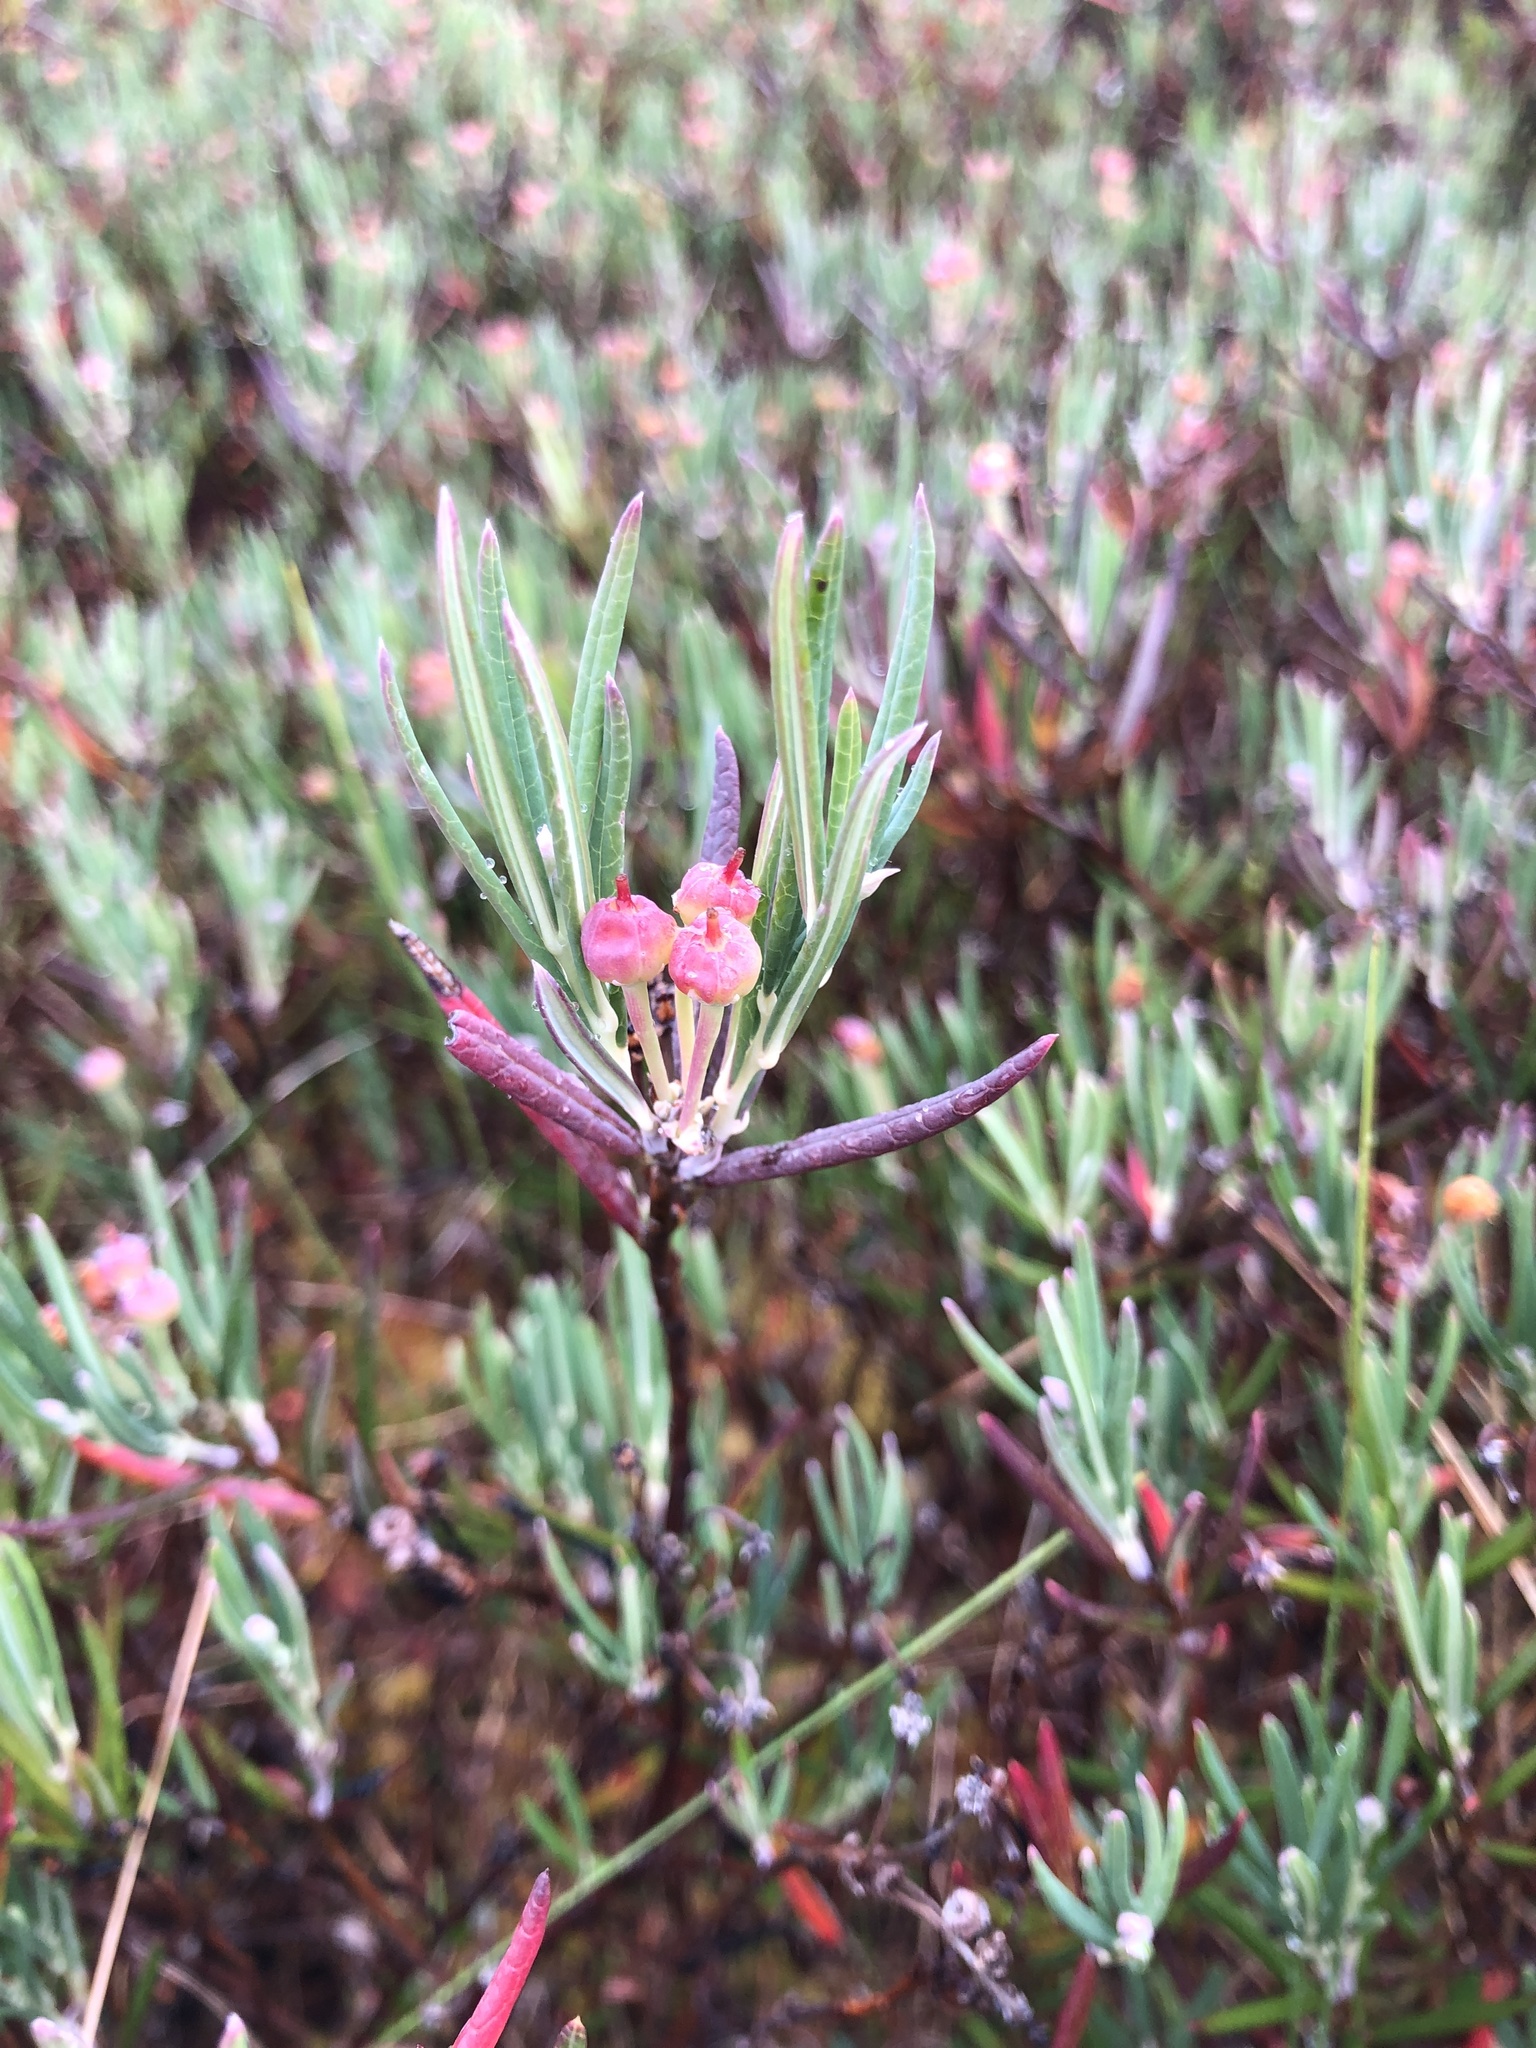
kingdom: Plantae
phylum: Tracheophyta
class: Magnoliopsida
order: Ericales
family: Ericaceae
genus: Andromeda
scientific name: Andromeda polifolia
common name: Bog-rosemary
